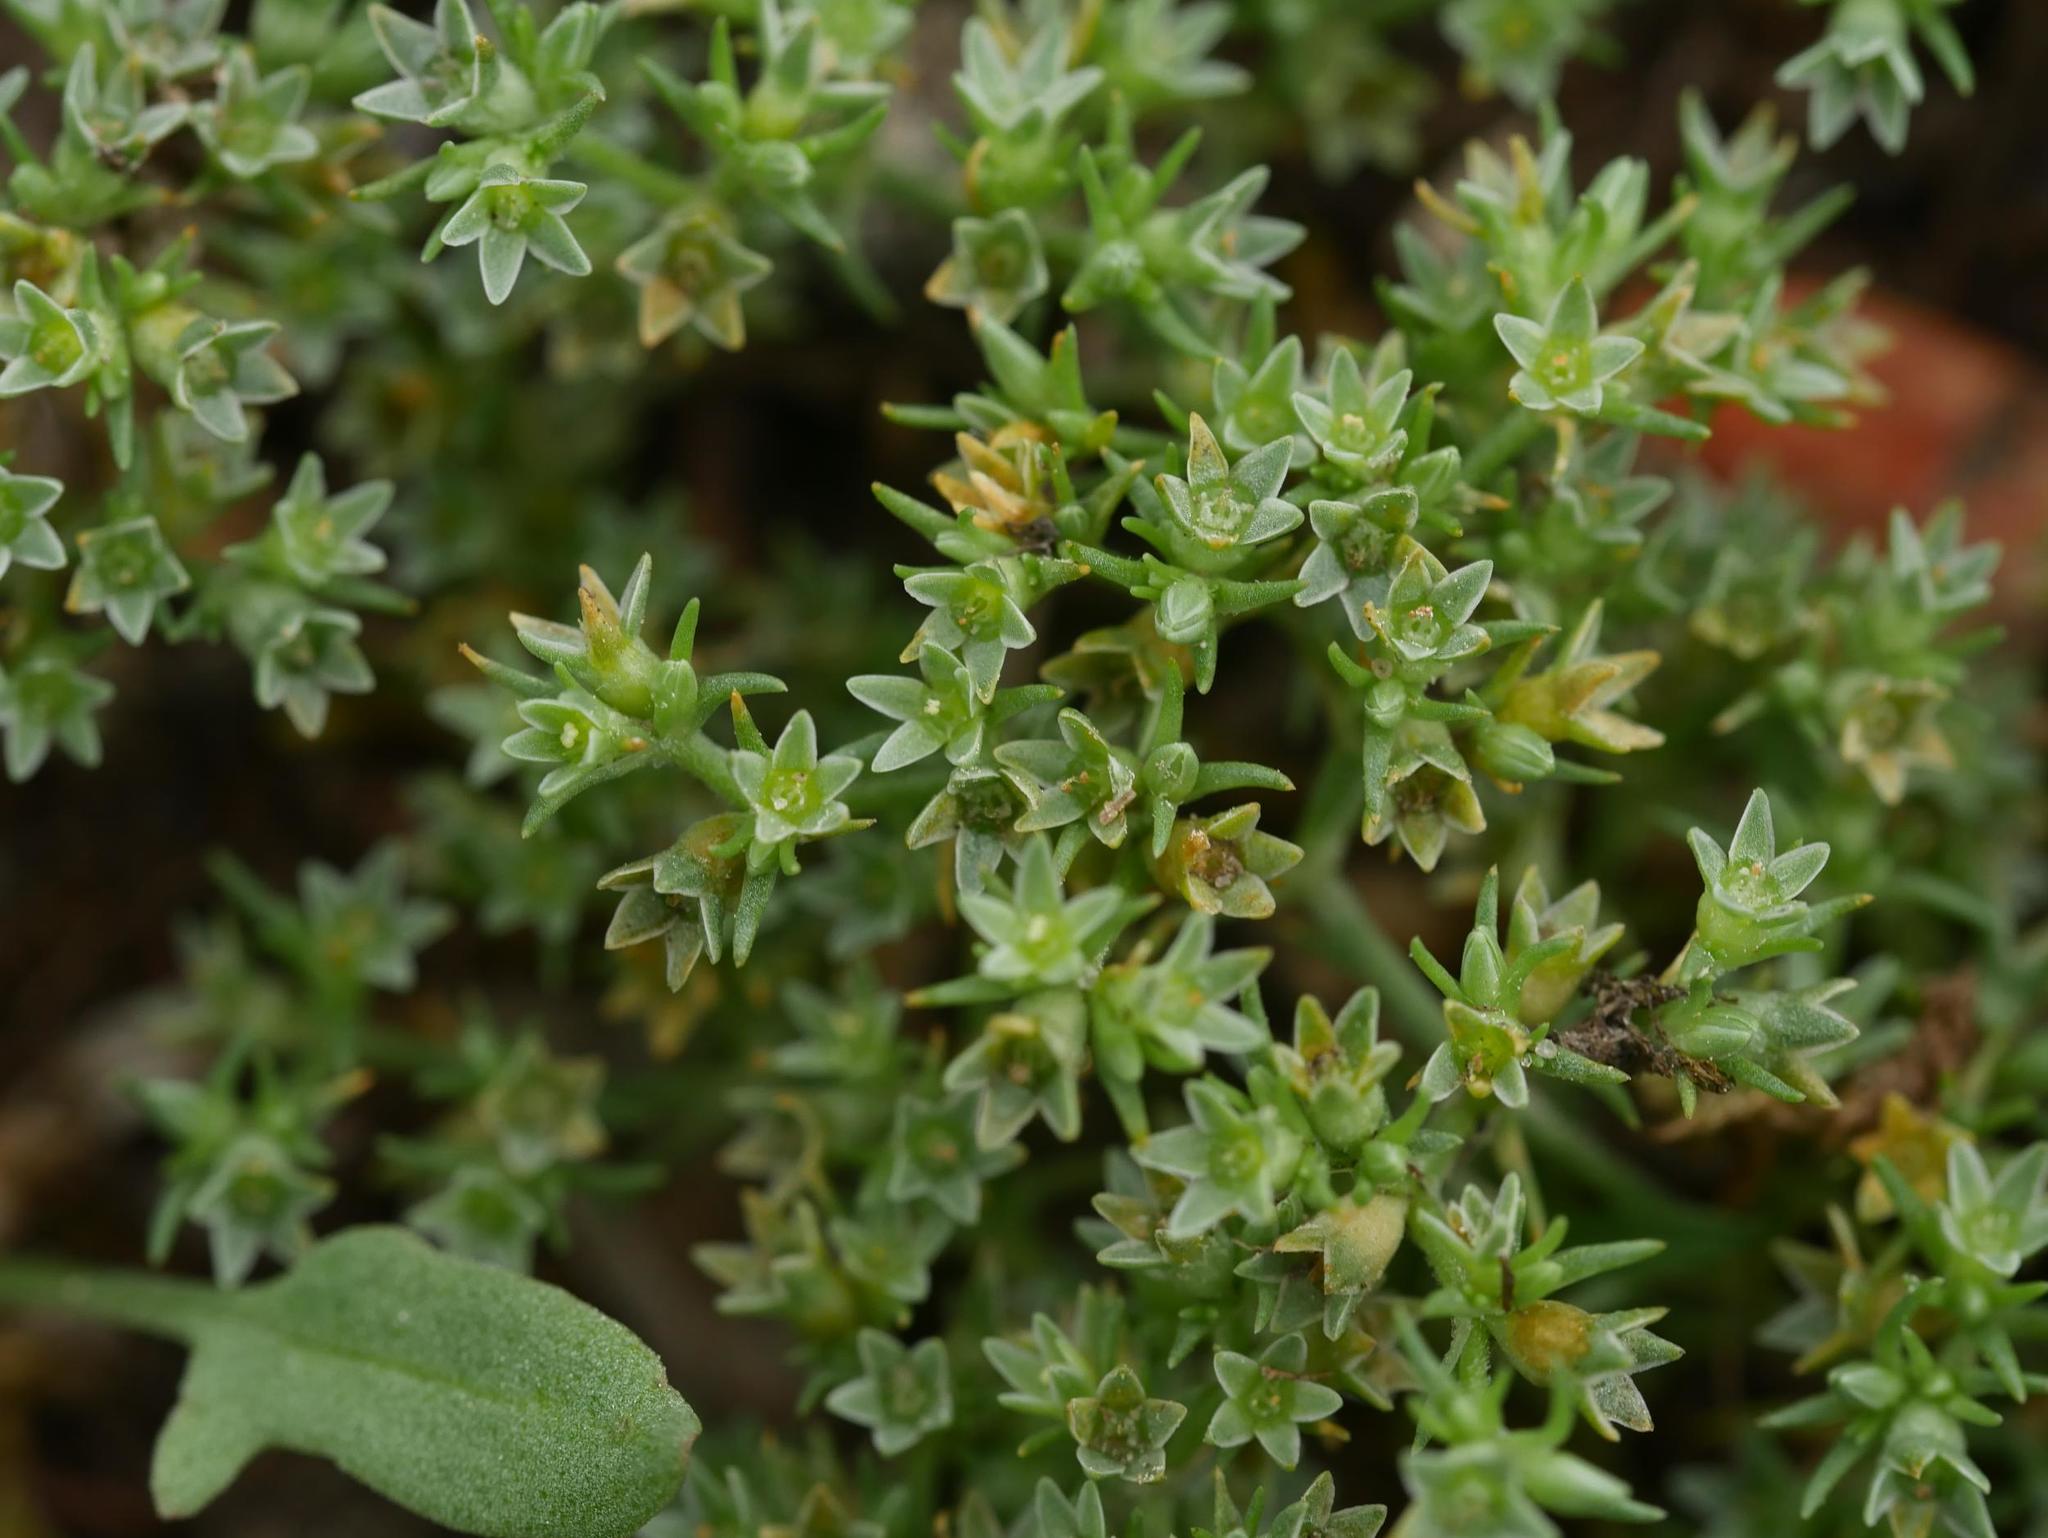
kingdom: Plantae
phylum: Tracheophyta
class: Magnoliopsida
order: Caryophyllales
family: Caryophyllaceae
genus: Scleranthus
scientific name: Scleranthus annuus
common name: Annual knawel
